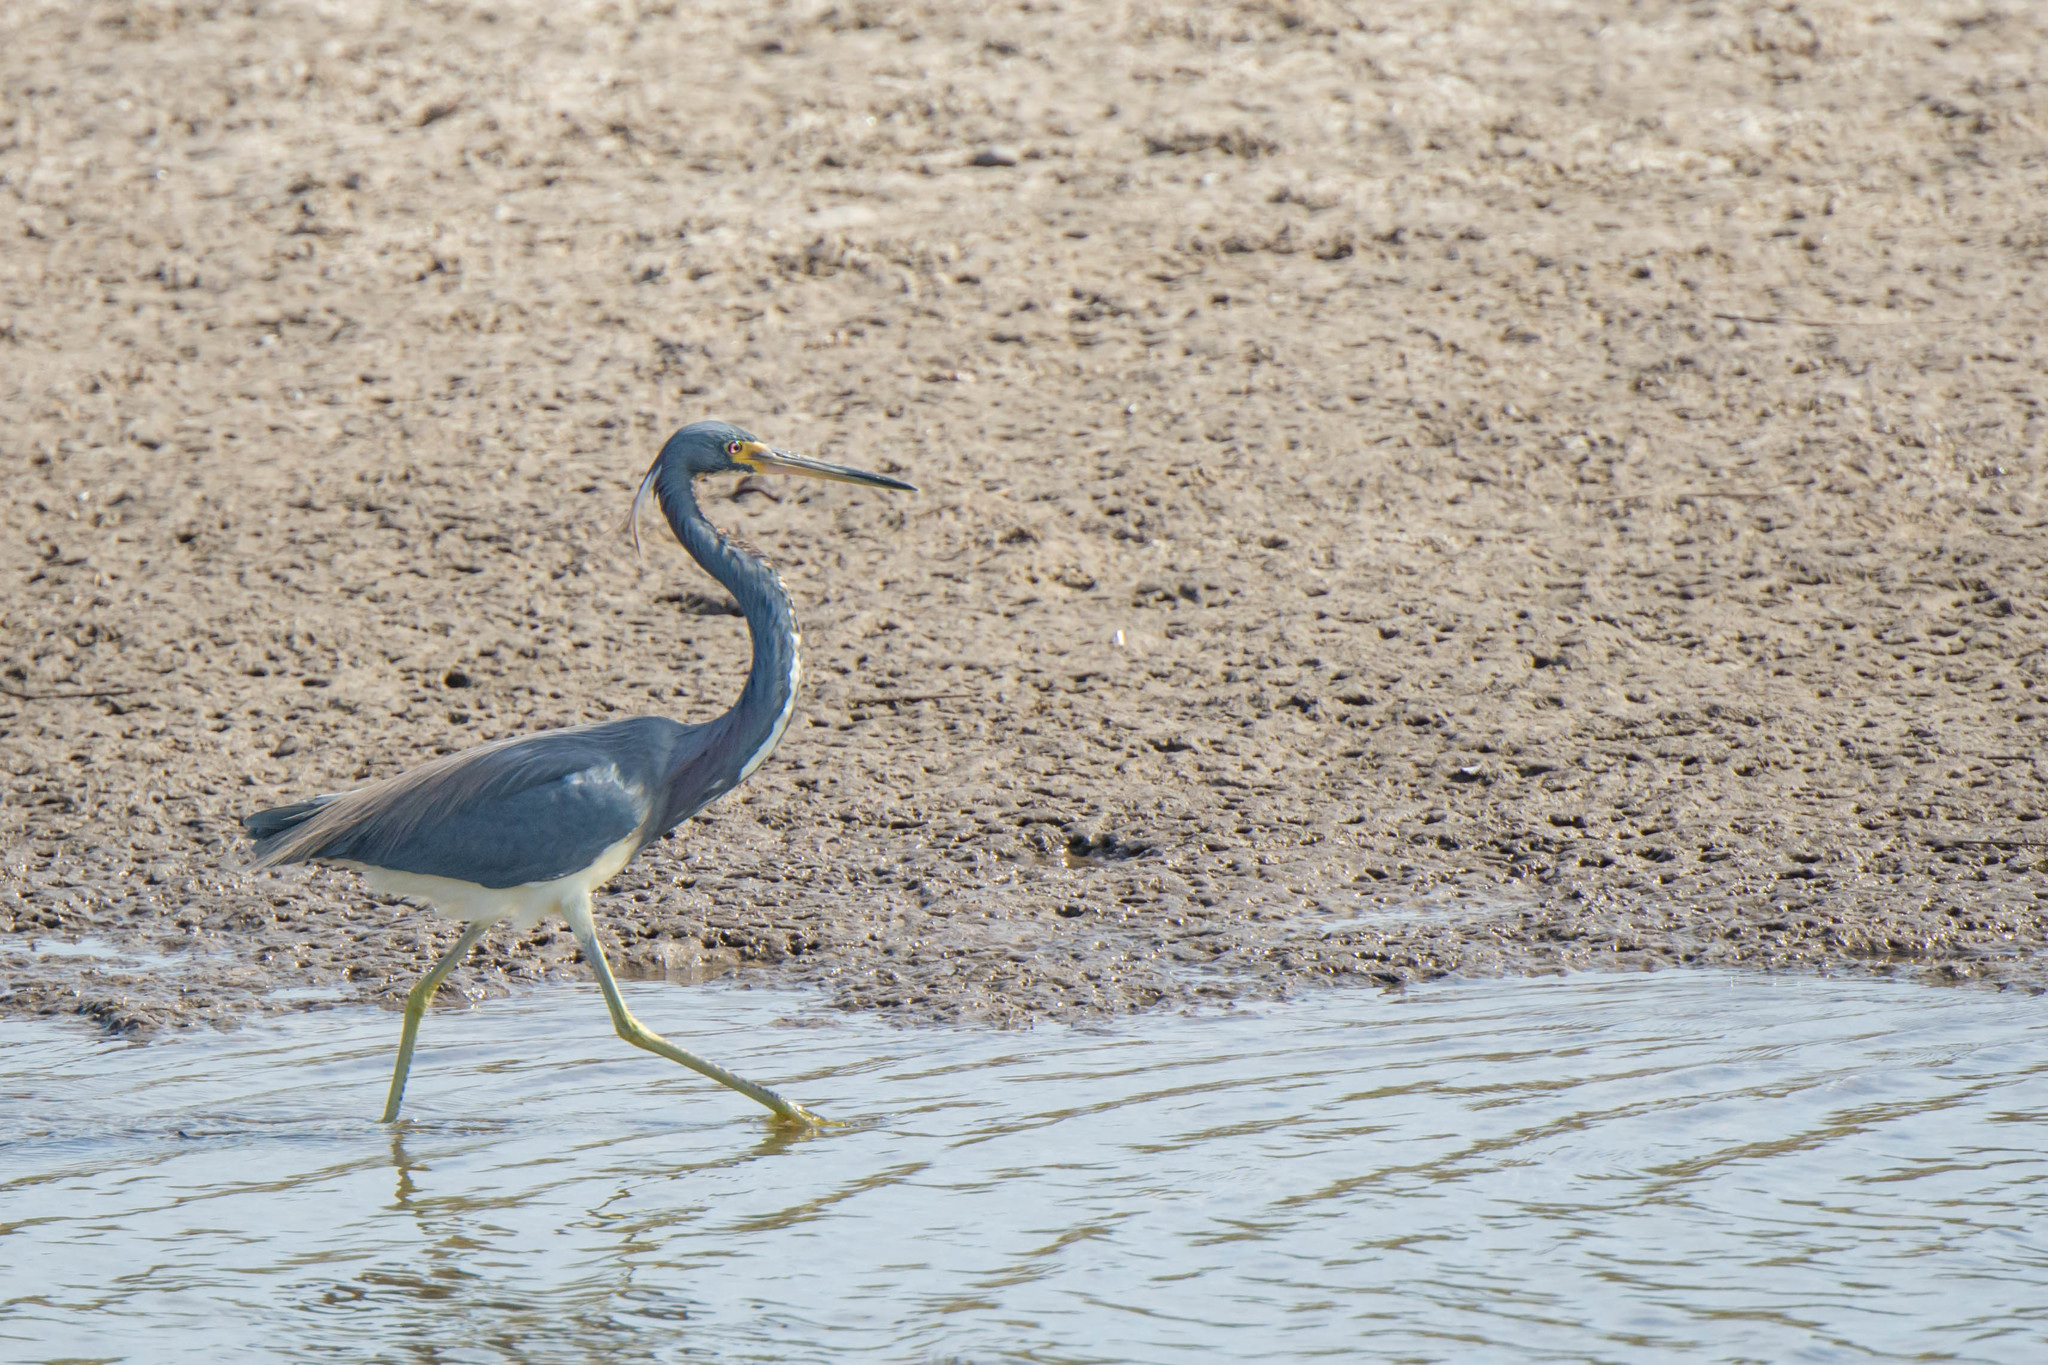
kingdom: Animalia
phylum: Chordata
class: Aves
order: Pelecaniformes
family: Ardeidae
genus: Egretta
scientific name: Egretta tricolor
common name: Tricolored heron
